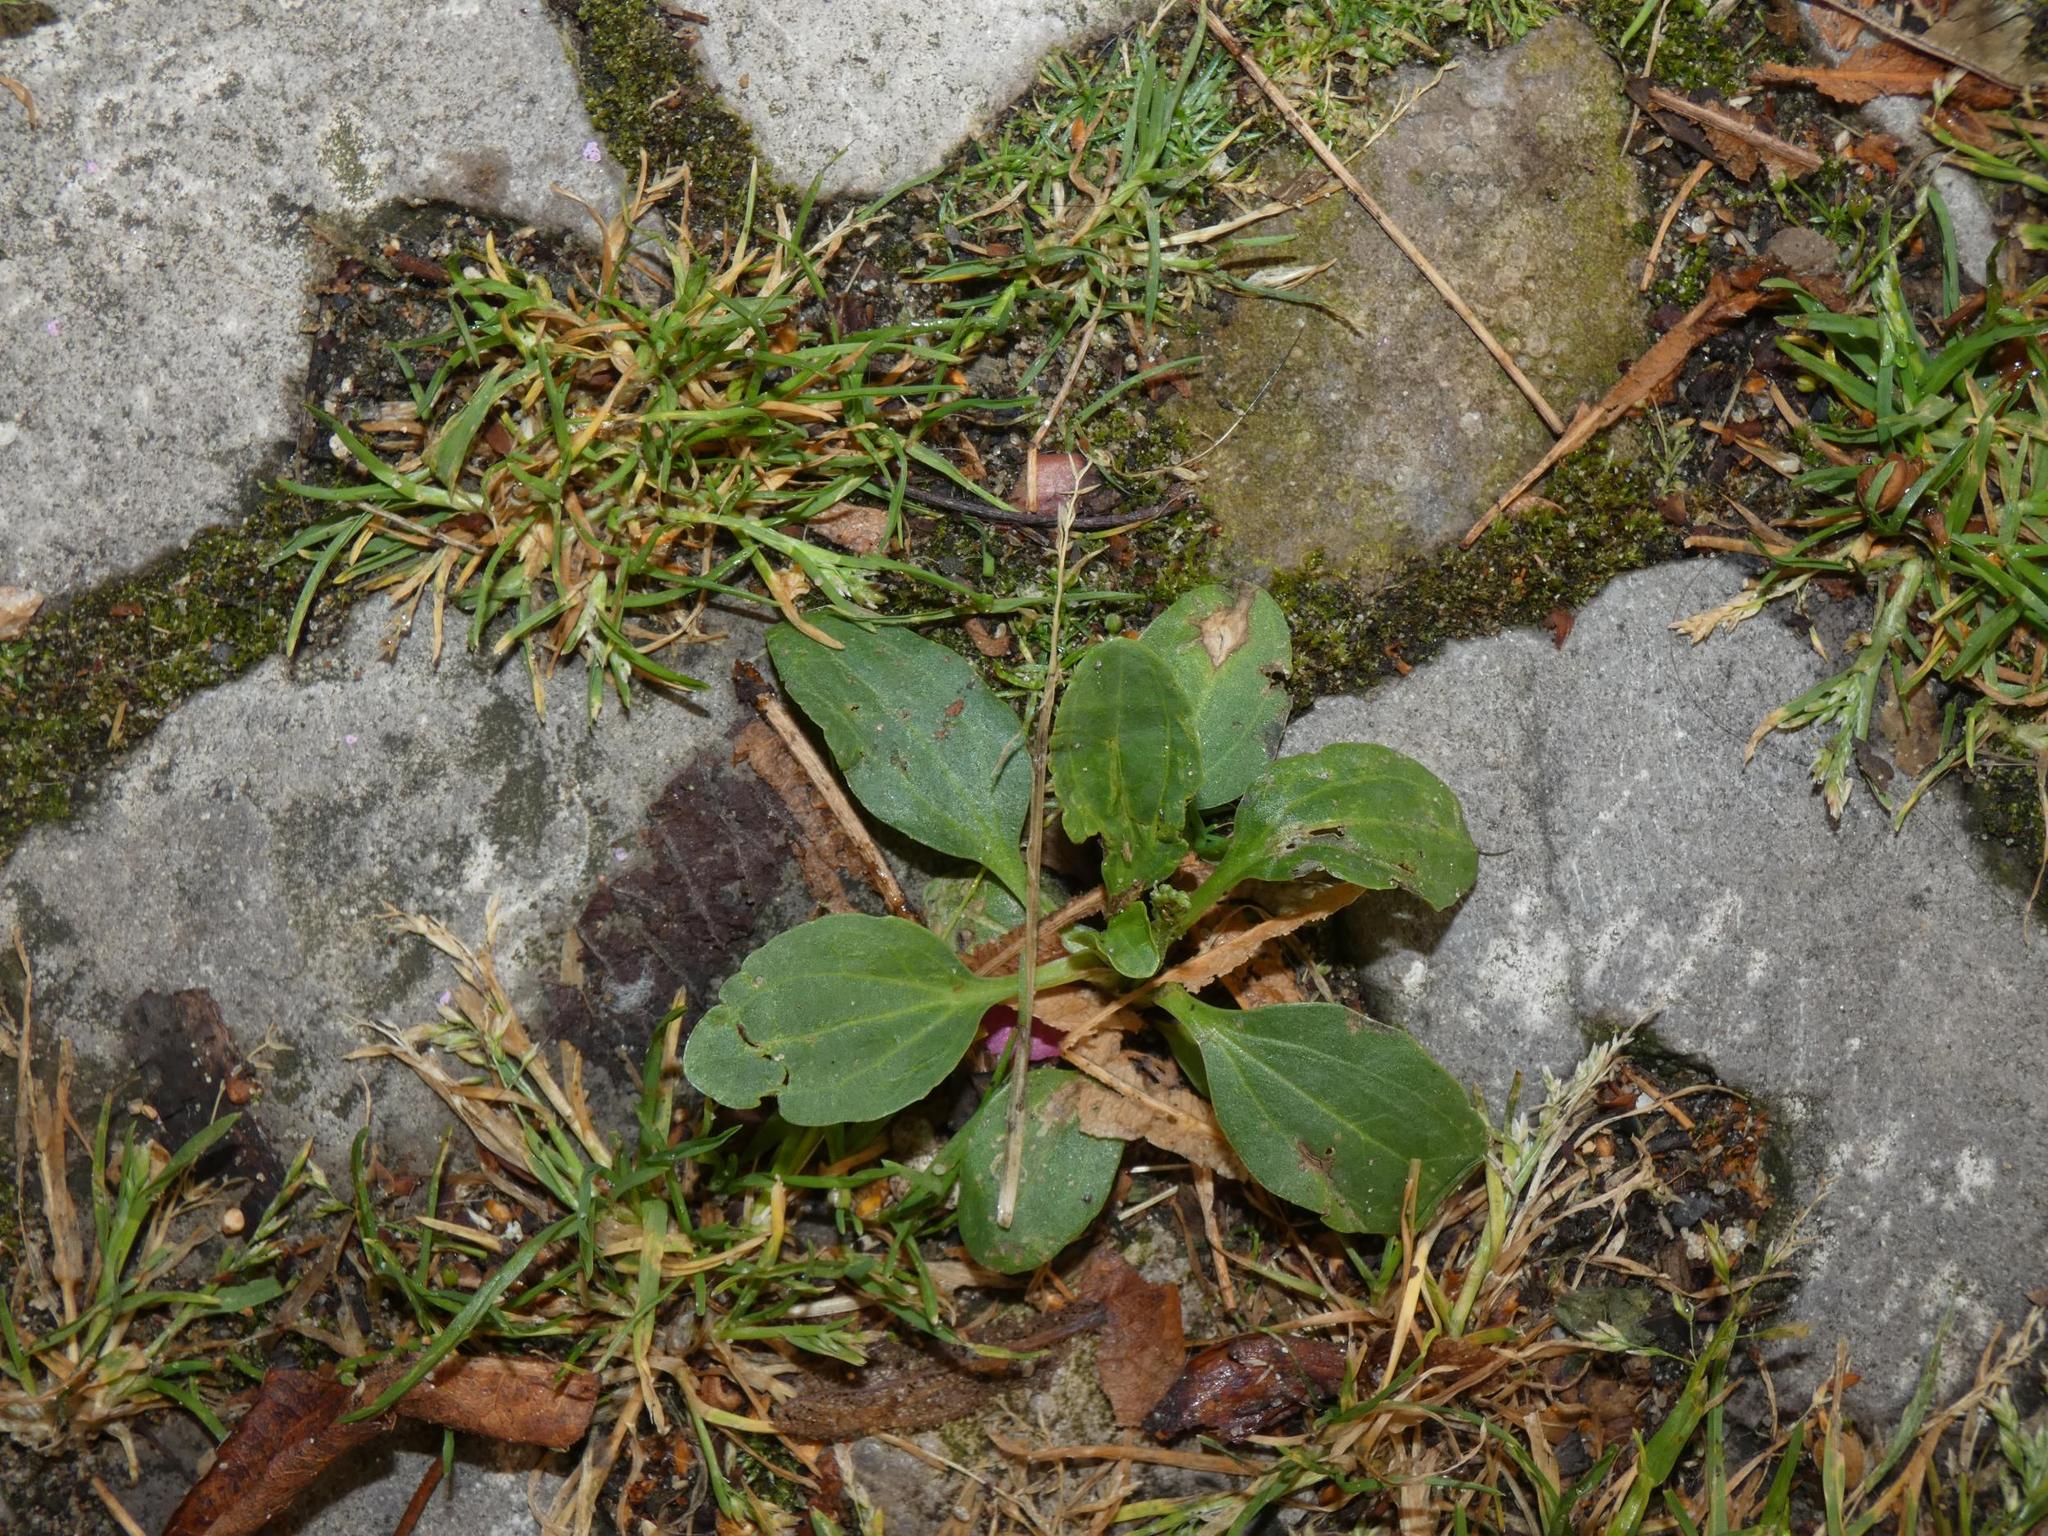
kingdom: Plantae
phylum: Tracheophyta
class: Magnoliopsida
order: Lamiales
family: Plantaginaceae
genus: Plantago
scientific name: Plantago major
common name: Common plantain
